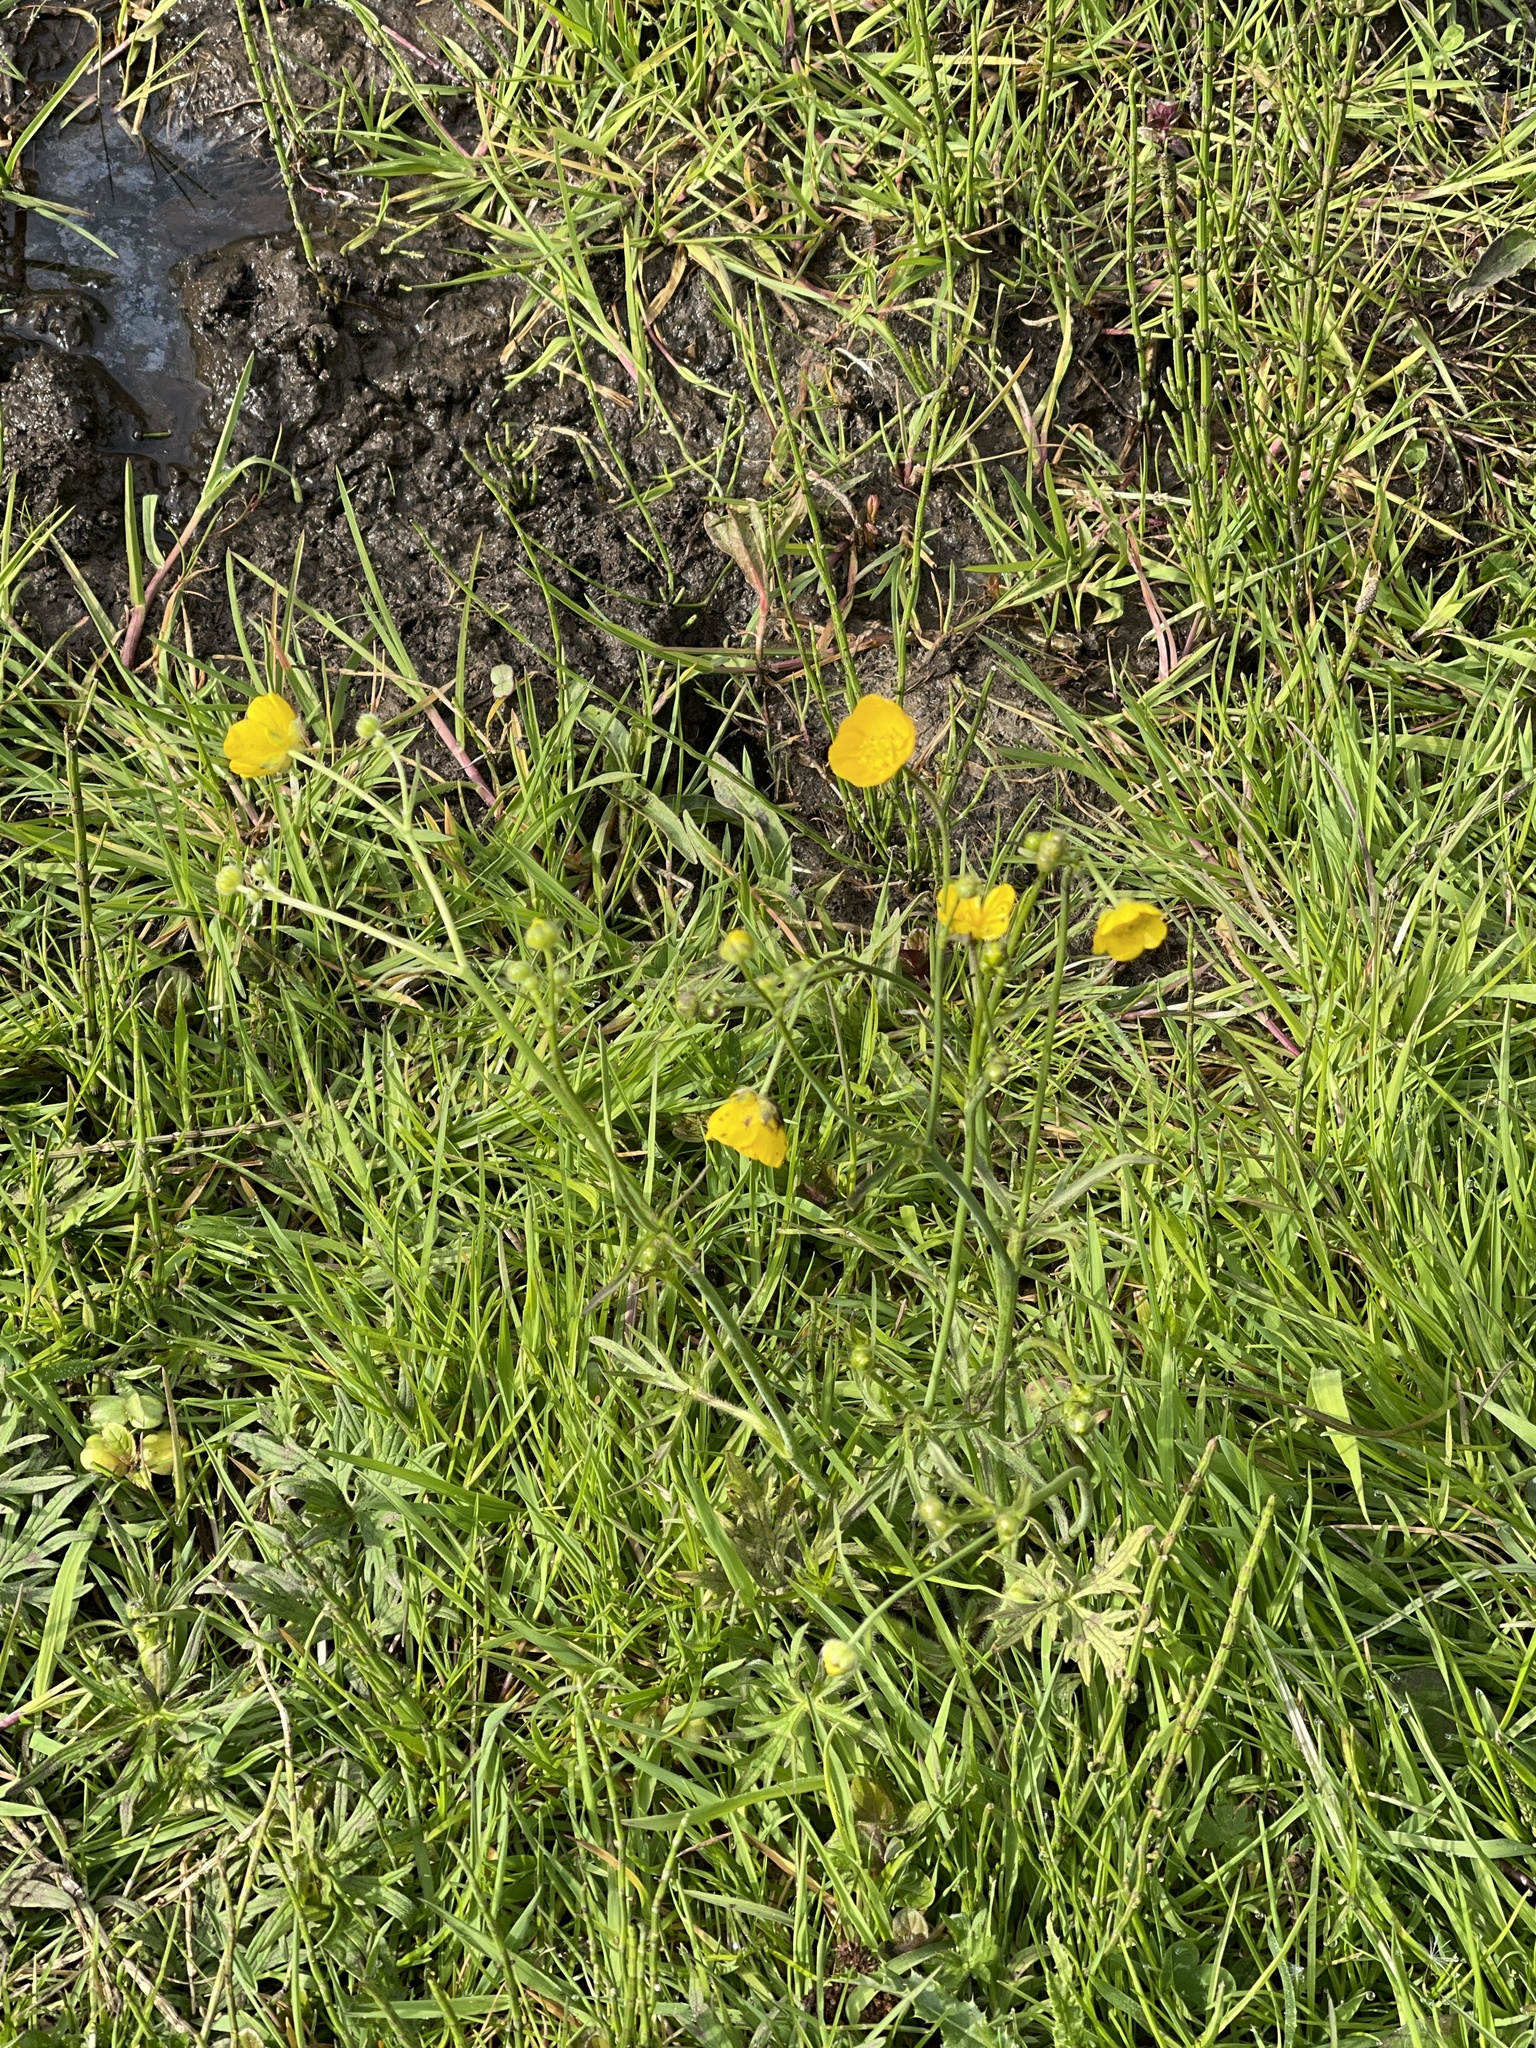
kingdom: Plantae
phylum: Tracheophyta
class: Magnoliopsida
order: Ranunculales
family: Ranunculaceae
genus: Ranunculus
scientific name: Ranunculus acris
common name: Meadow buttercup
